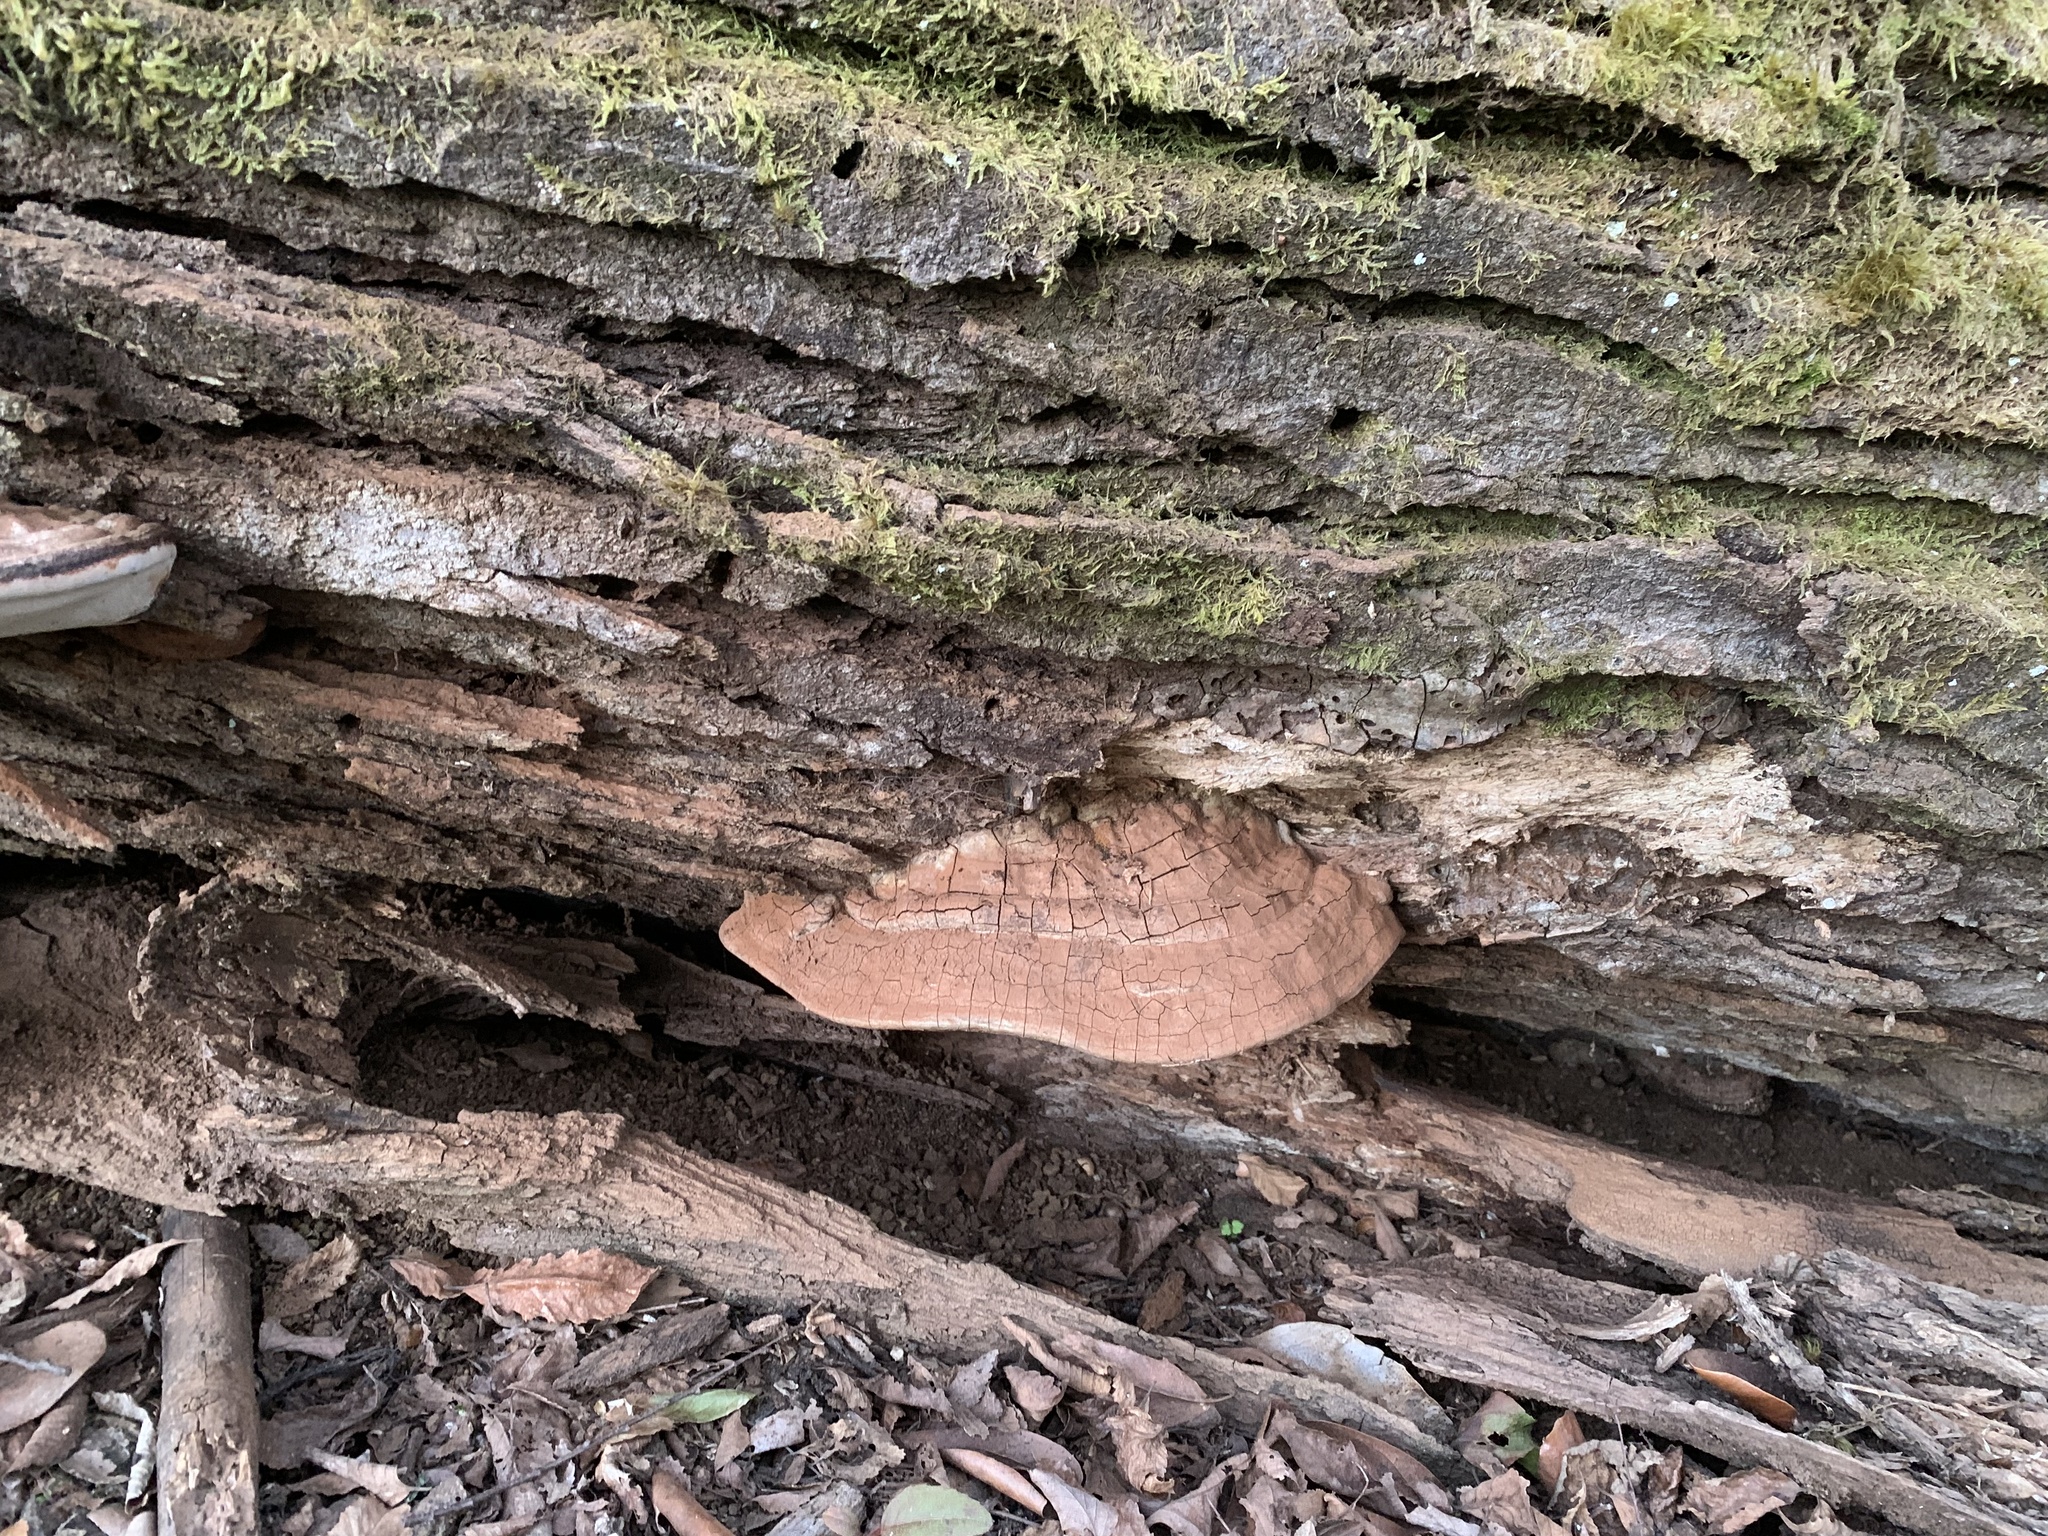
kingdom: Fungi
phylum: Basidiomycota
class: Agaricomycetes
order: Polyporales
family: Polyporaceae
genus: Ganoderma
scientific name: Ganoderma australe
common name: Southern bracket
